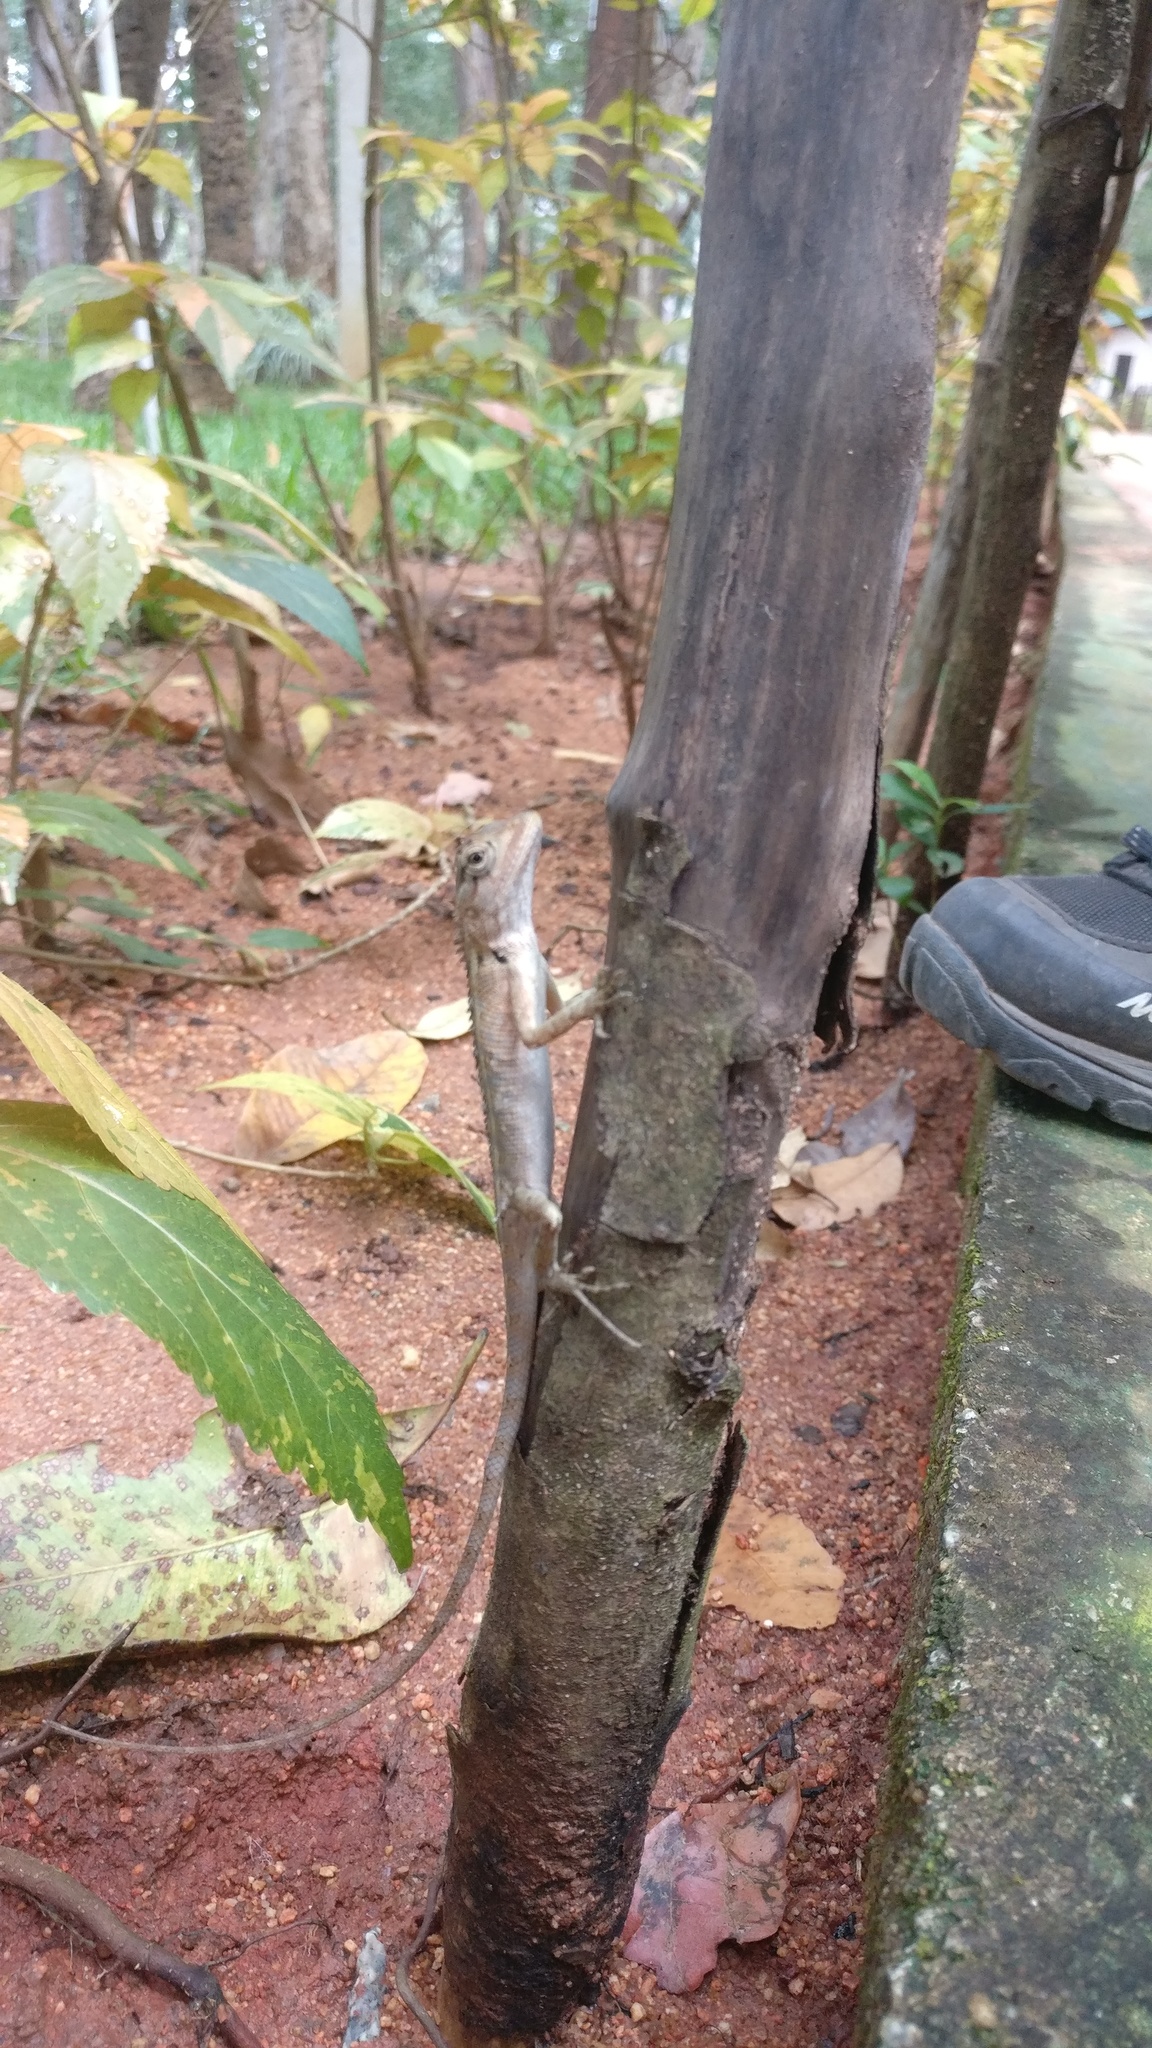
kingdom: Animalia
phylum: Chordata
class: Squamata
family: Agamidae
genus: Calotes
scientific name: Calotes versicolor
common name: Oriental garden lizard
